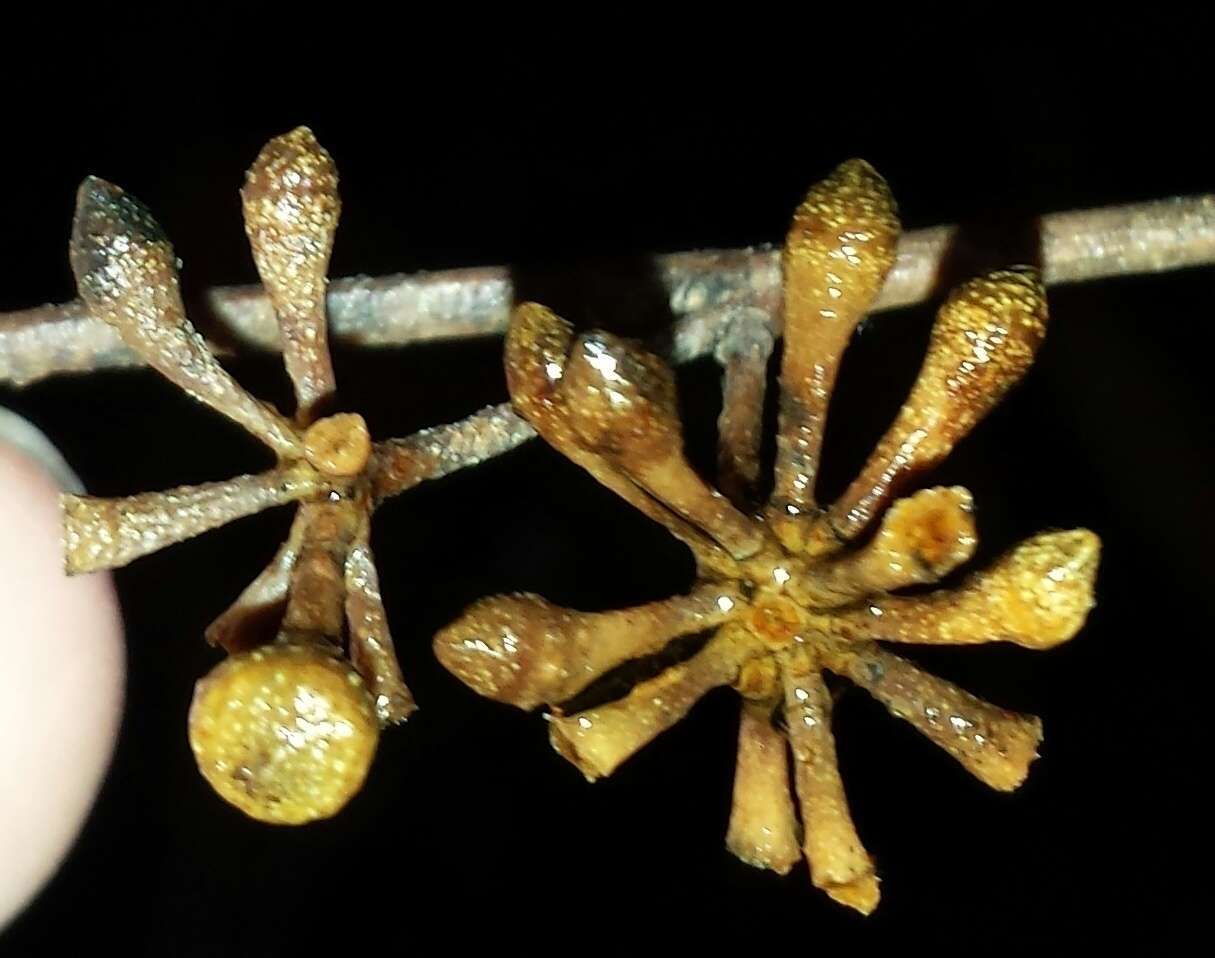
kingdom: Plantae
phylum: Tracheophyta
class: Magnoliopsida
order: Myrtales
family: Myrtaceae
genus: Eucalyptus
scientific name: Eucalyptus regnans
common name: Stringy gum
